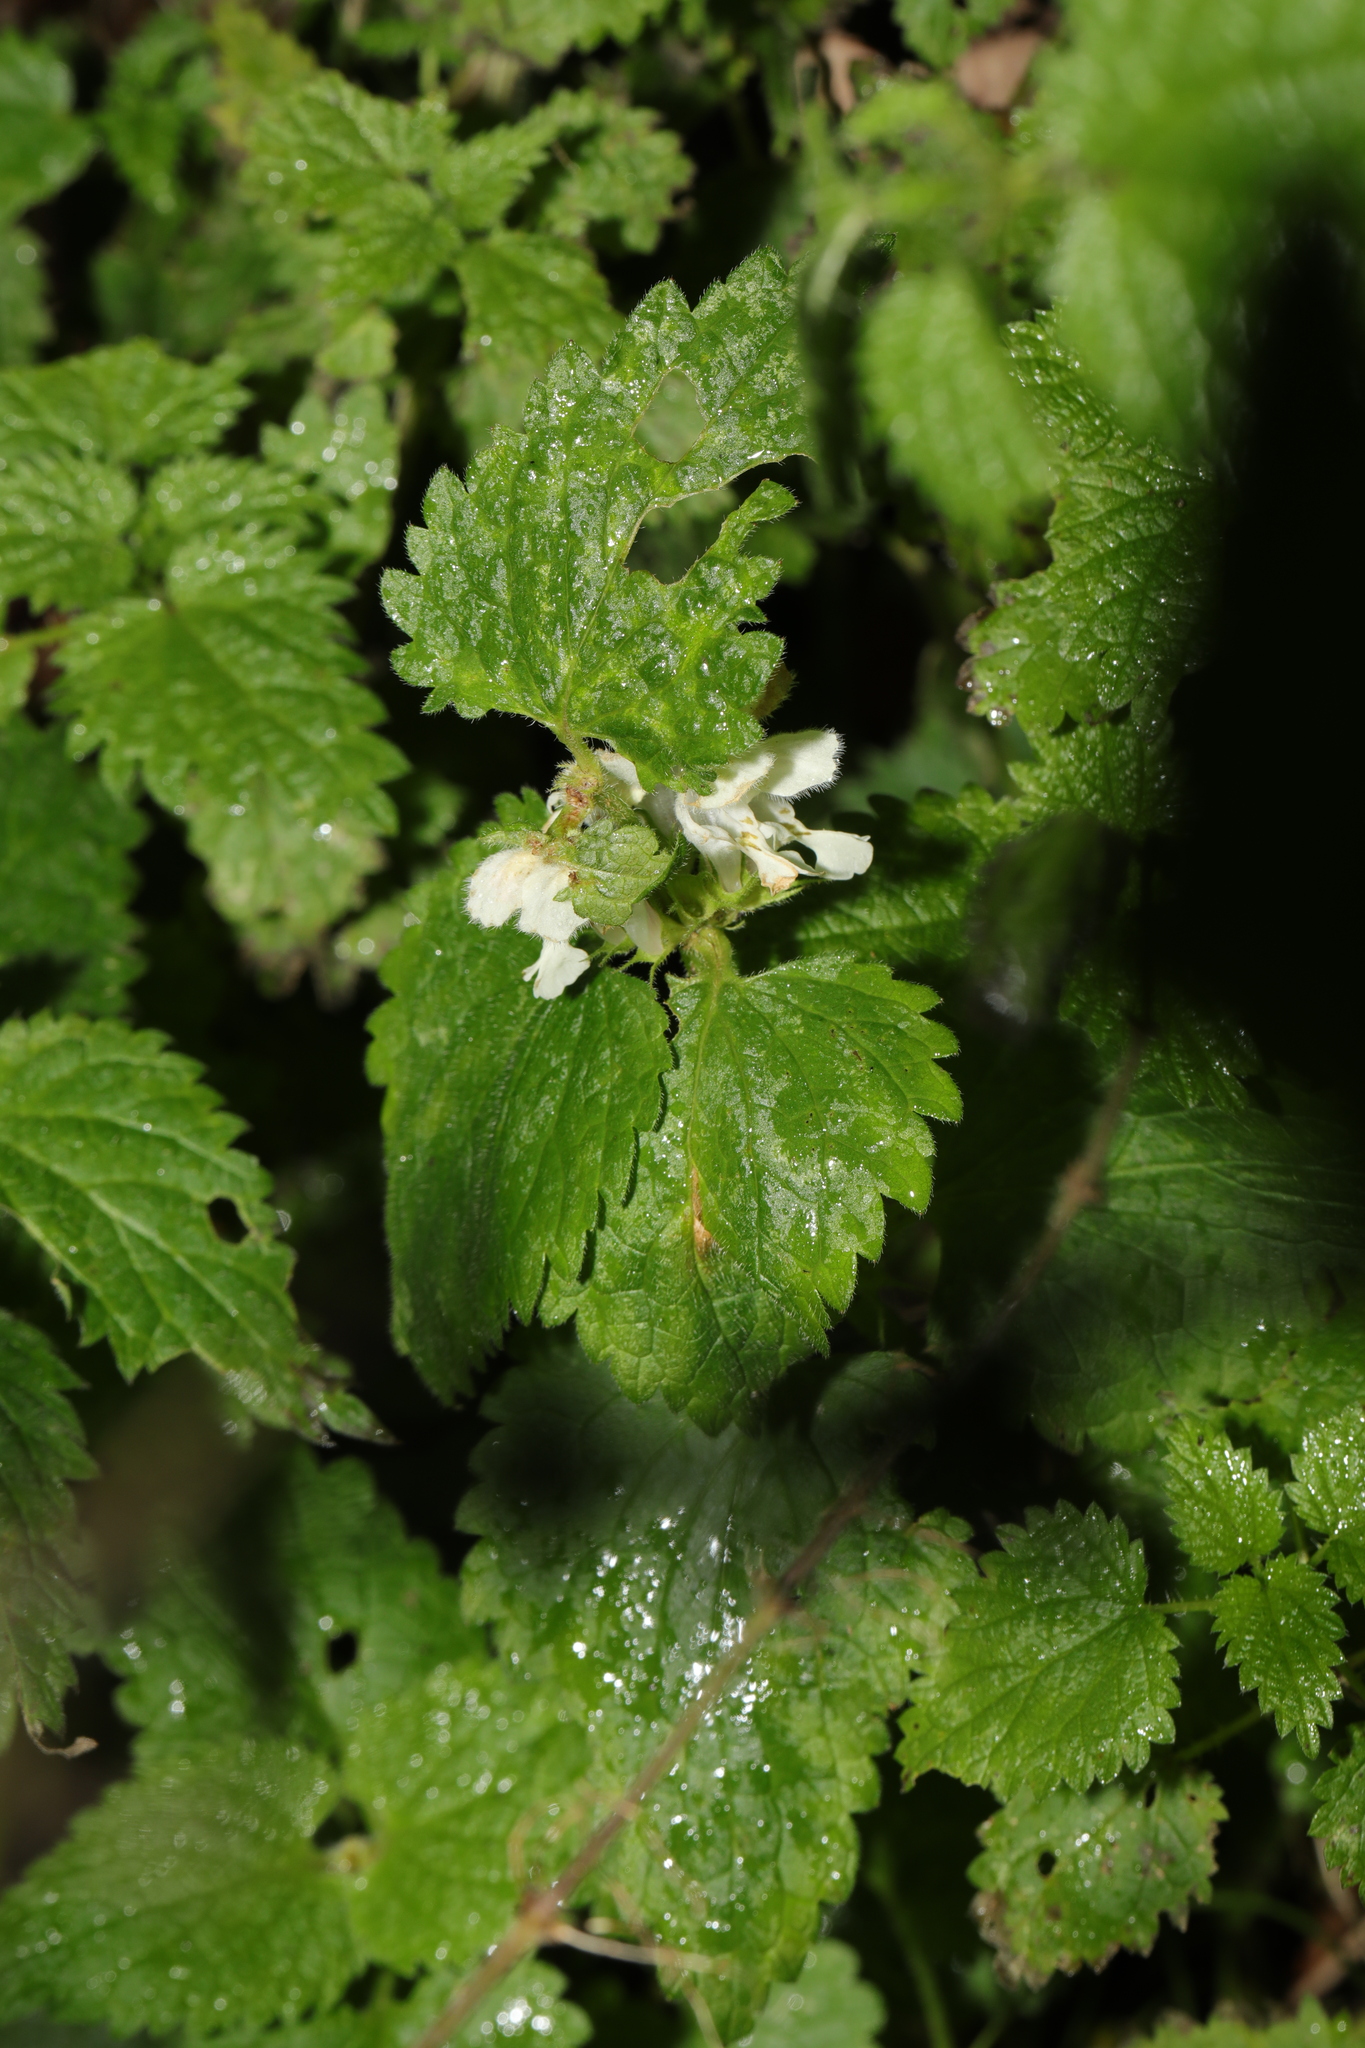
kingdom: Plantae
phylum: Tracheophyta
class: Magnoliopsida
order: Lamiales
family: Lamiaceae
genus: Lamium
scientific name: Lamium album
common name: White dead-nettle
